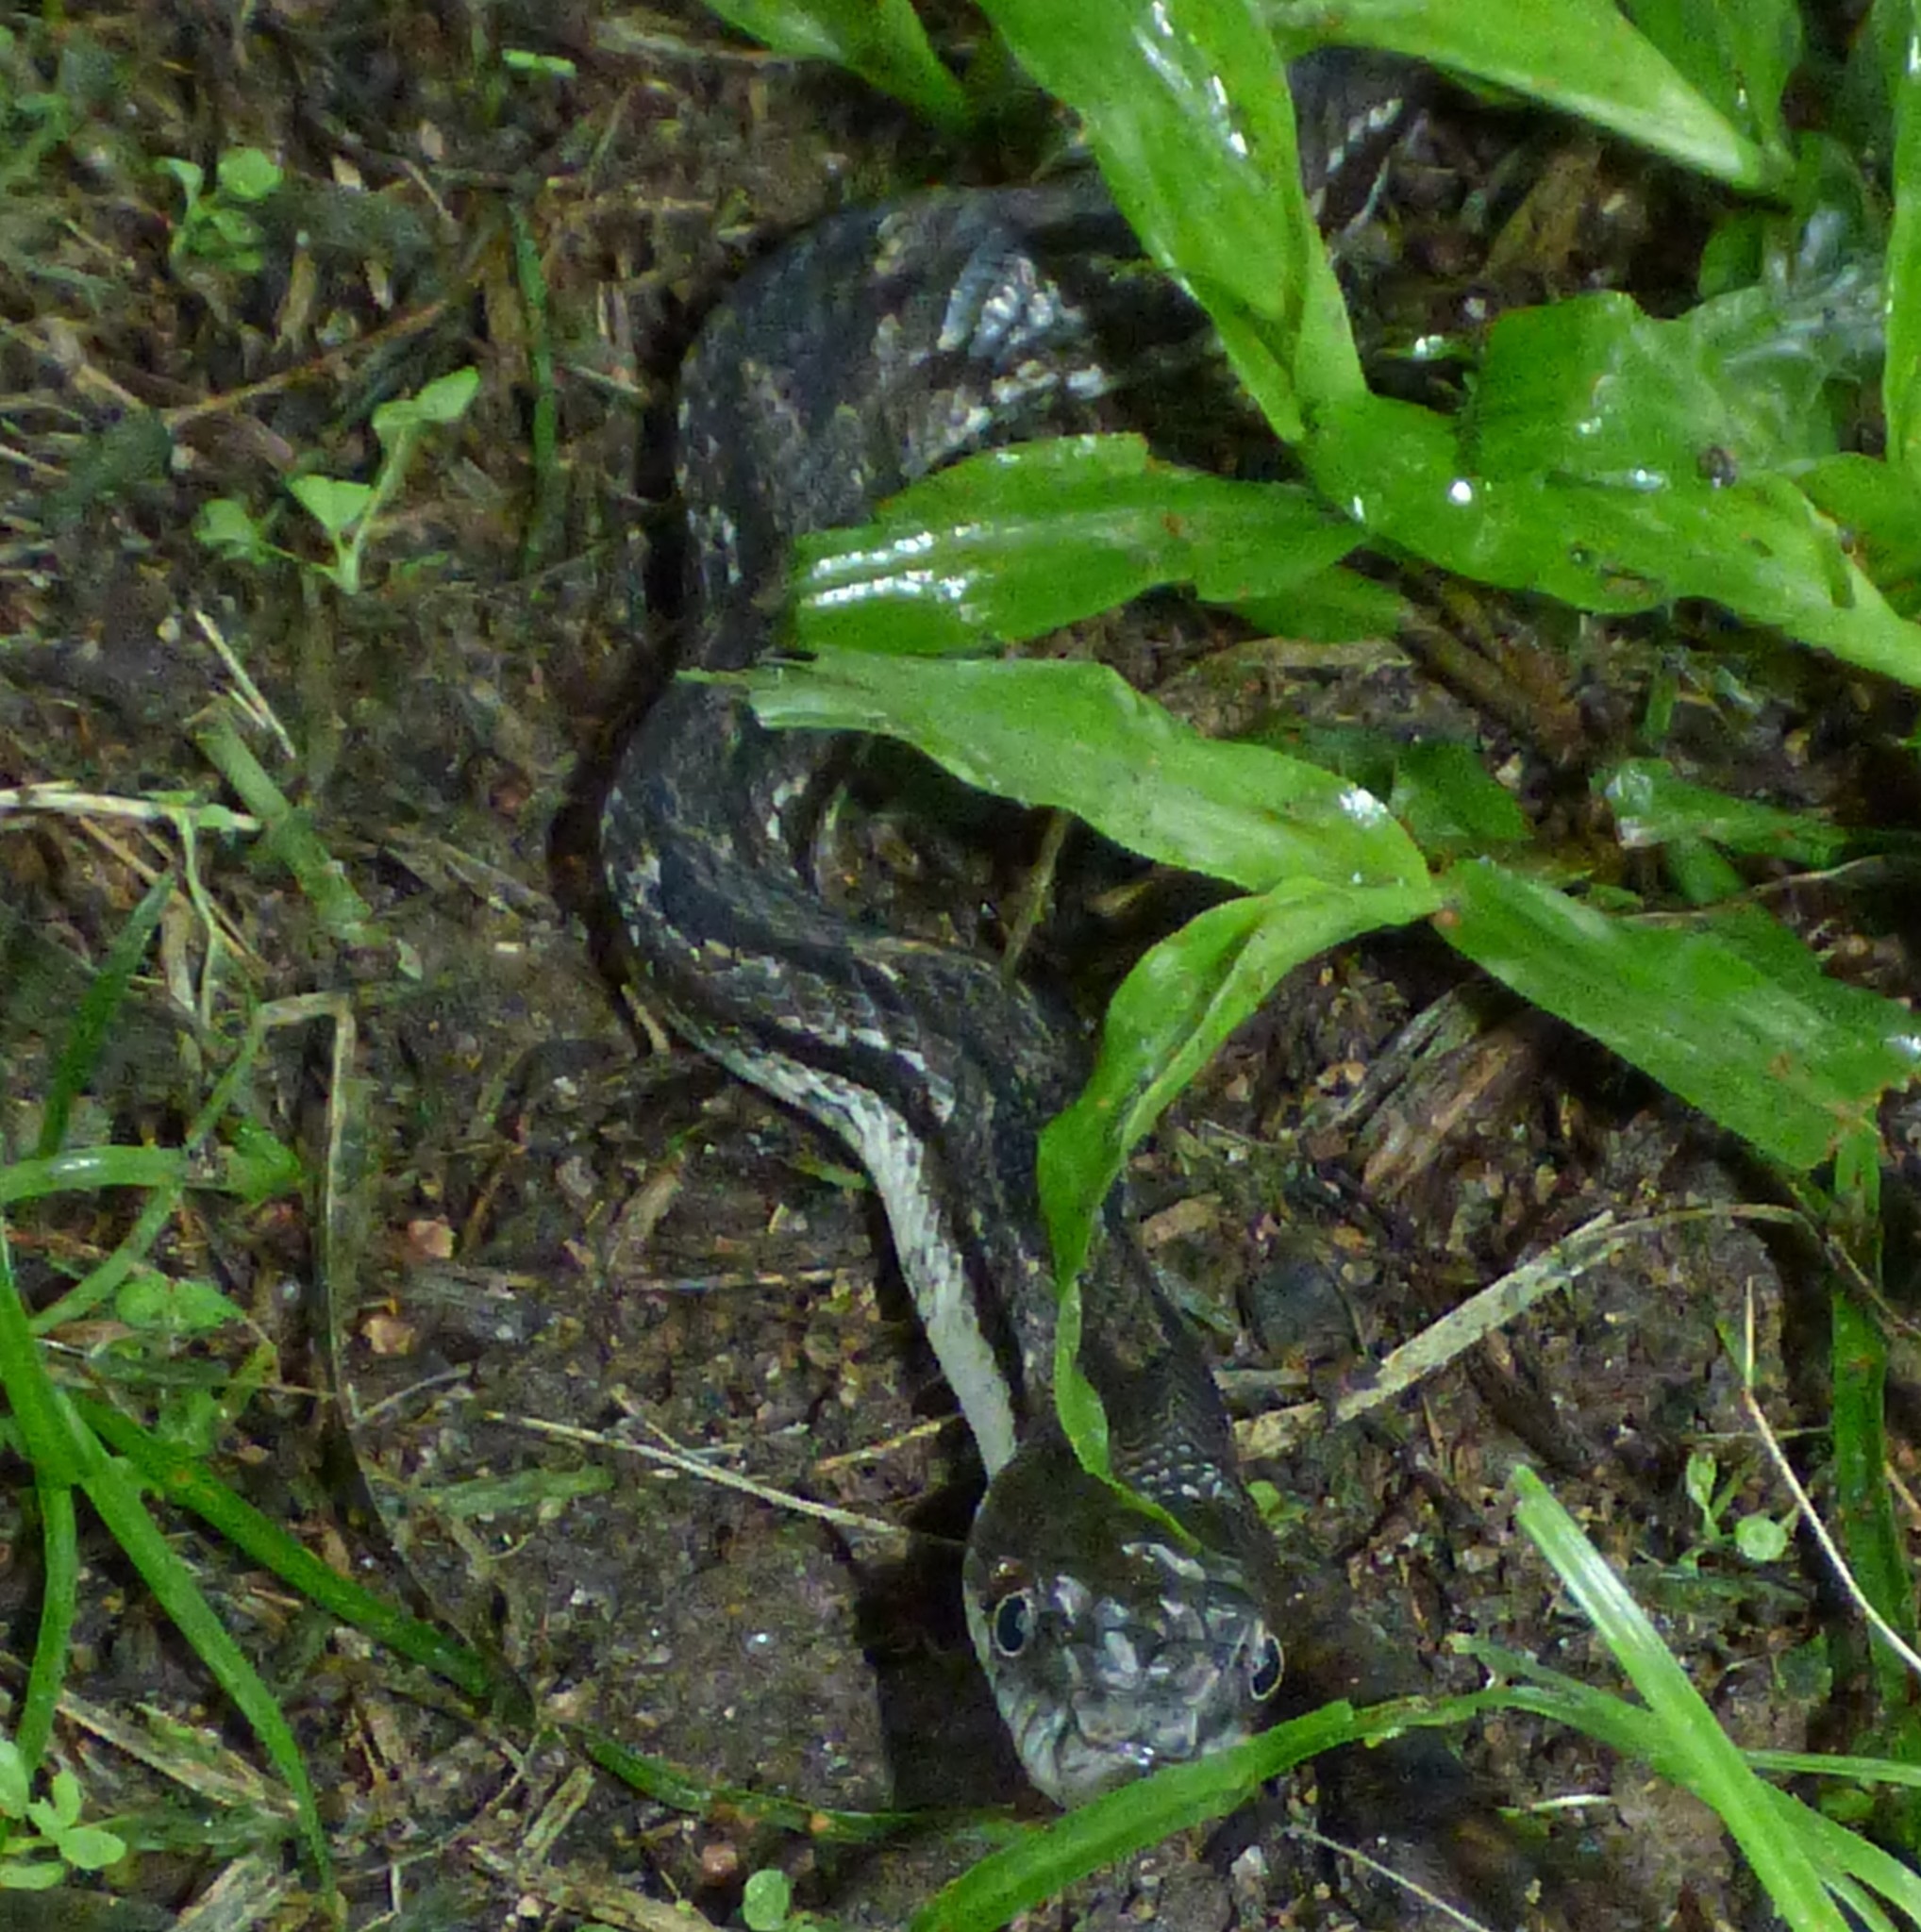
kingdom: Animalia
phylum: Chordata
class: Squamata
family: Colubridae
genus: Pantherophis
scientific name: Pantherophis alleghaniensis
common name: Eastern rat snake
